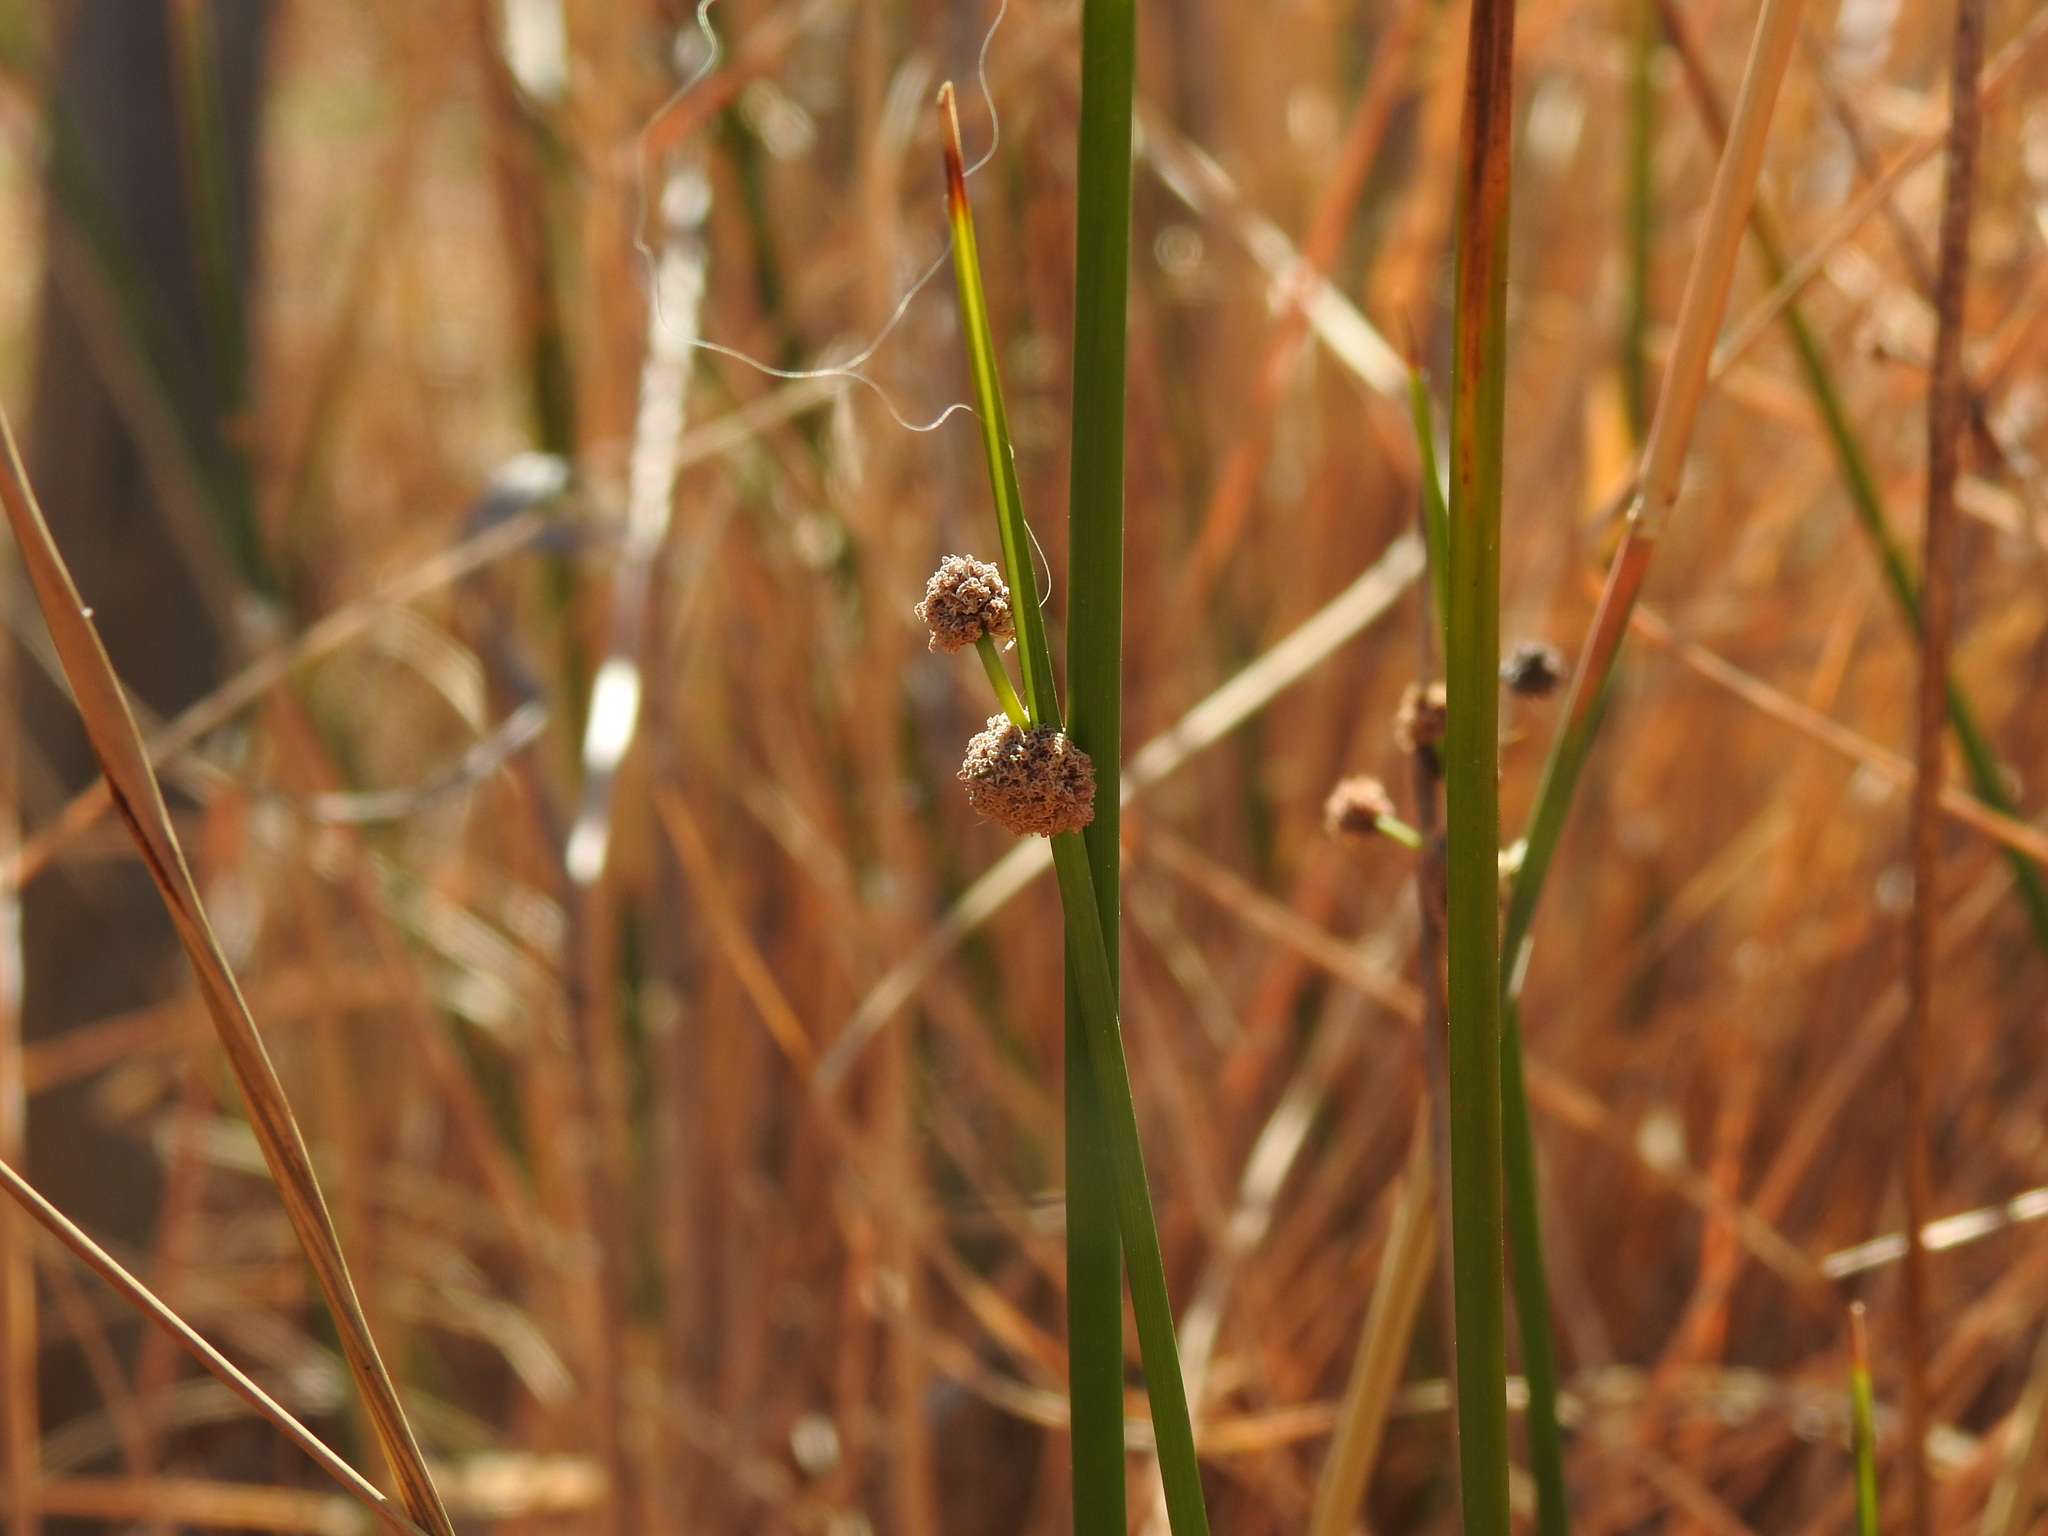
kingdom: Plantae
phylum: Tracheophyta
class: Liliopsida
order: Poales
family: Cyperaceae
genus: Scirpoides
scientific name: Scirpoides holoschoenus
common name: Round-headed club-rush
